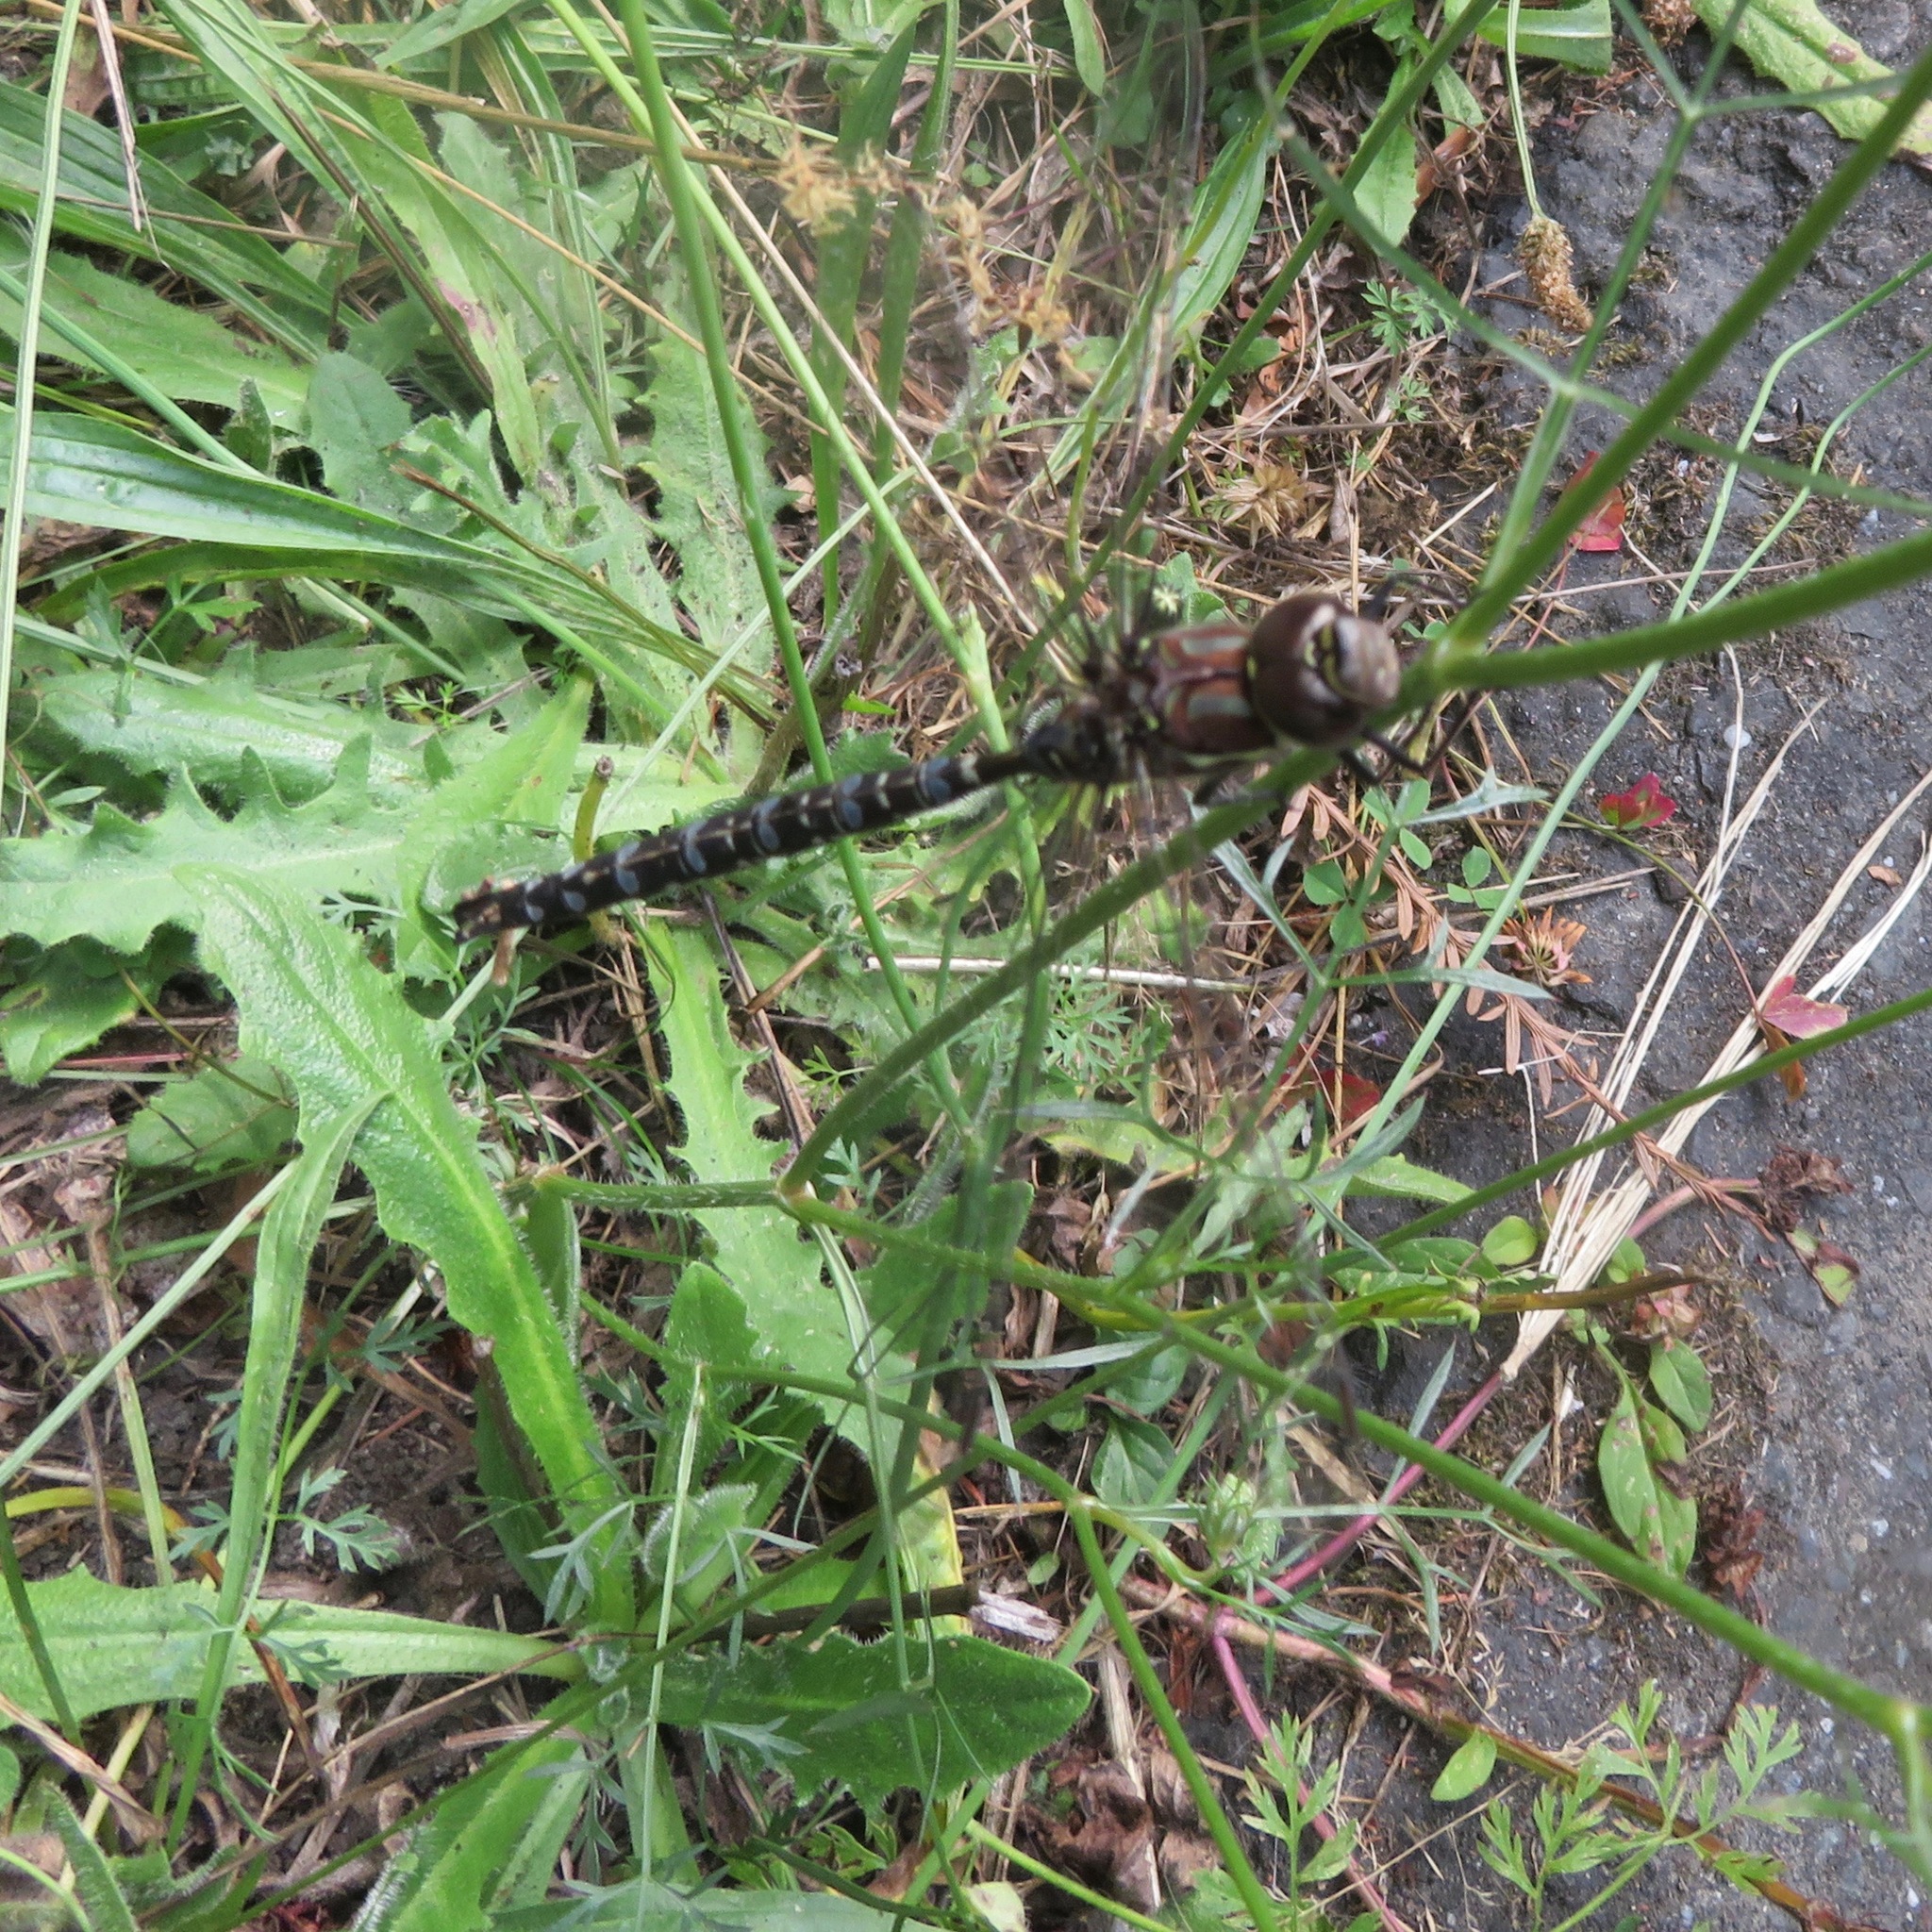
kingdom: Animalia
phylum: Arthropoda
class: Insecta
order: Odonata
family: Aeshnidae
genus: Aeshna
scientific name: Aeshna umbrosa
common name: Shadow darner
